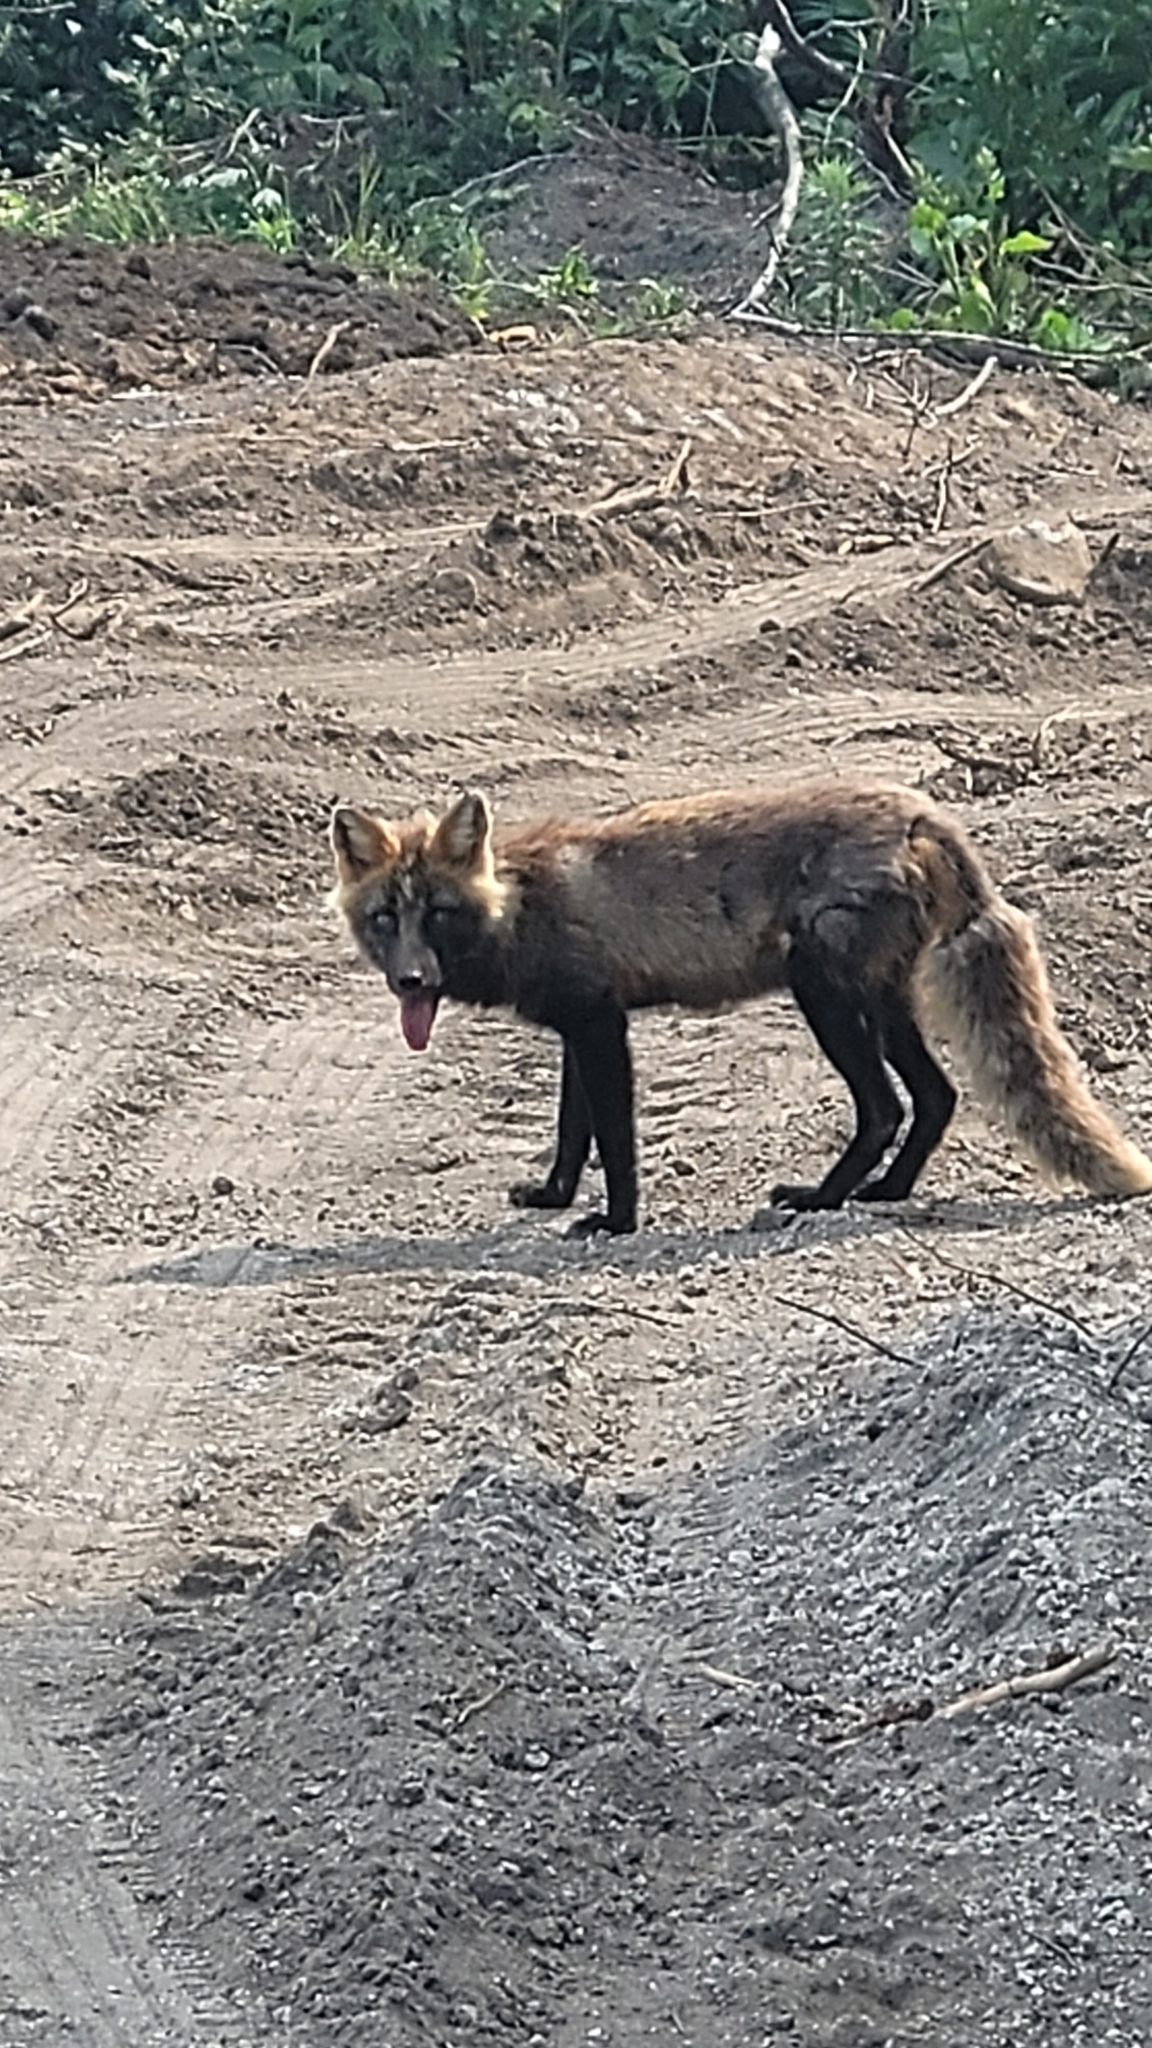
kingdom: Animalia
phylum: Chordata
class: Mammalia
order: Carnivora
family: Canidae
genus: Vulpes
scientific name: Vulpes vulpes
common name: Red fox
